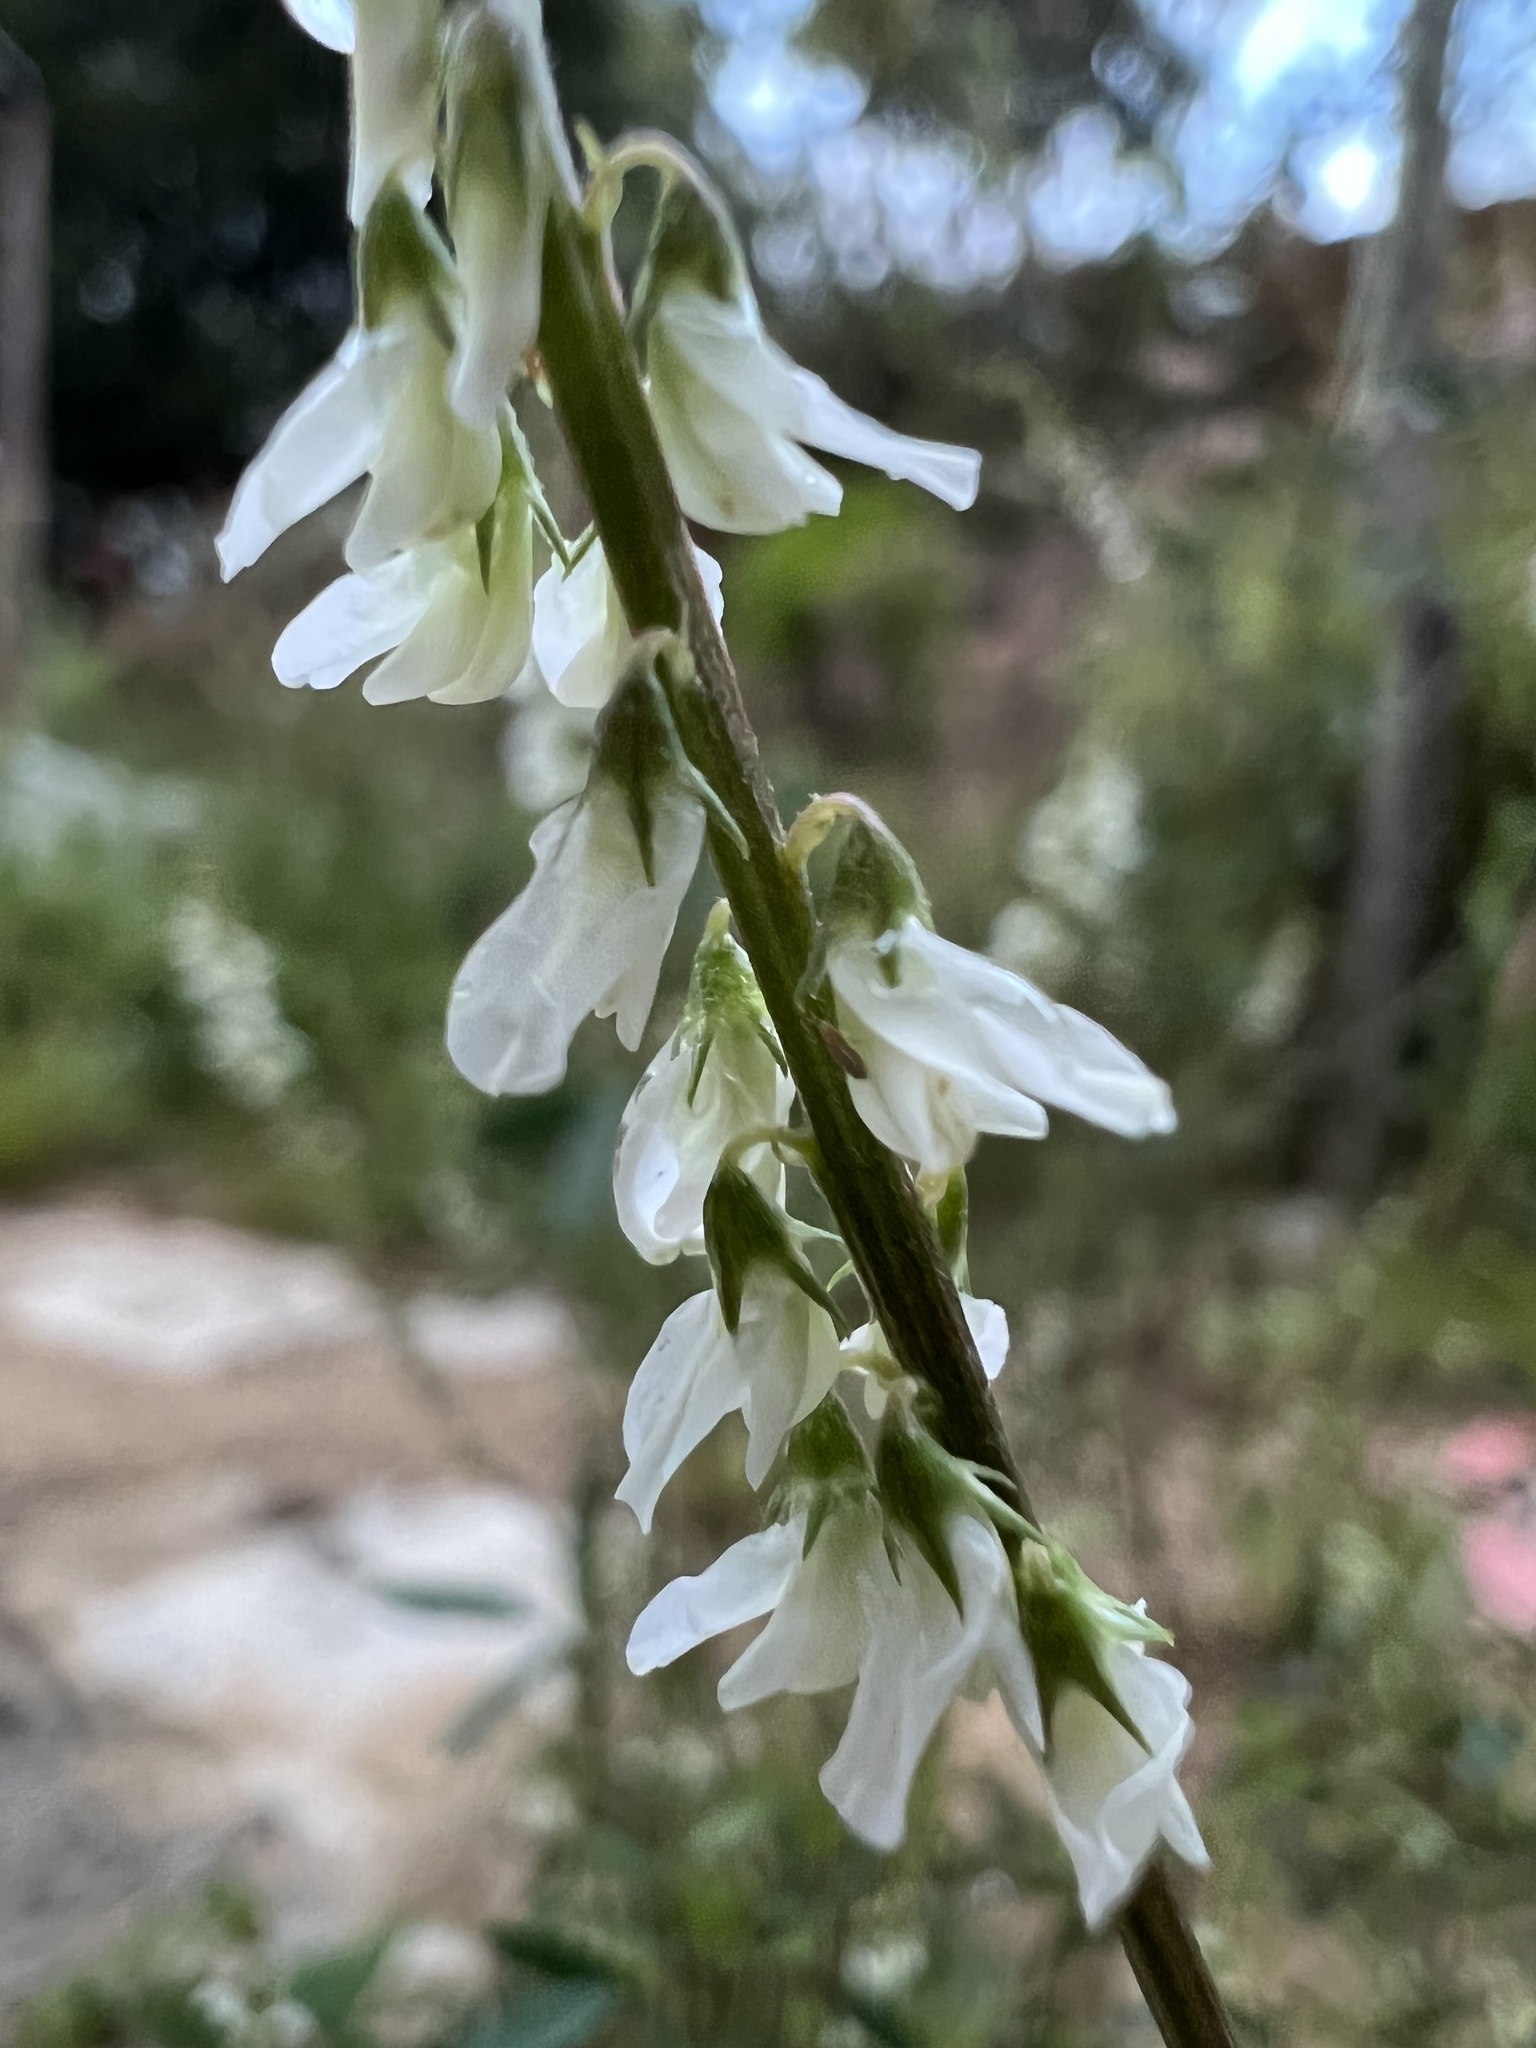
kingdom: Plantae
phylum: Tracheophyta
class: Magnoliopsida
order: Fabales
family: Fabaceae
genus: Melilotus
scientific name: Melilotus albus
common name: White melilot
